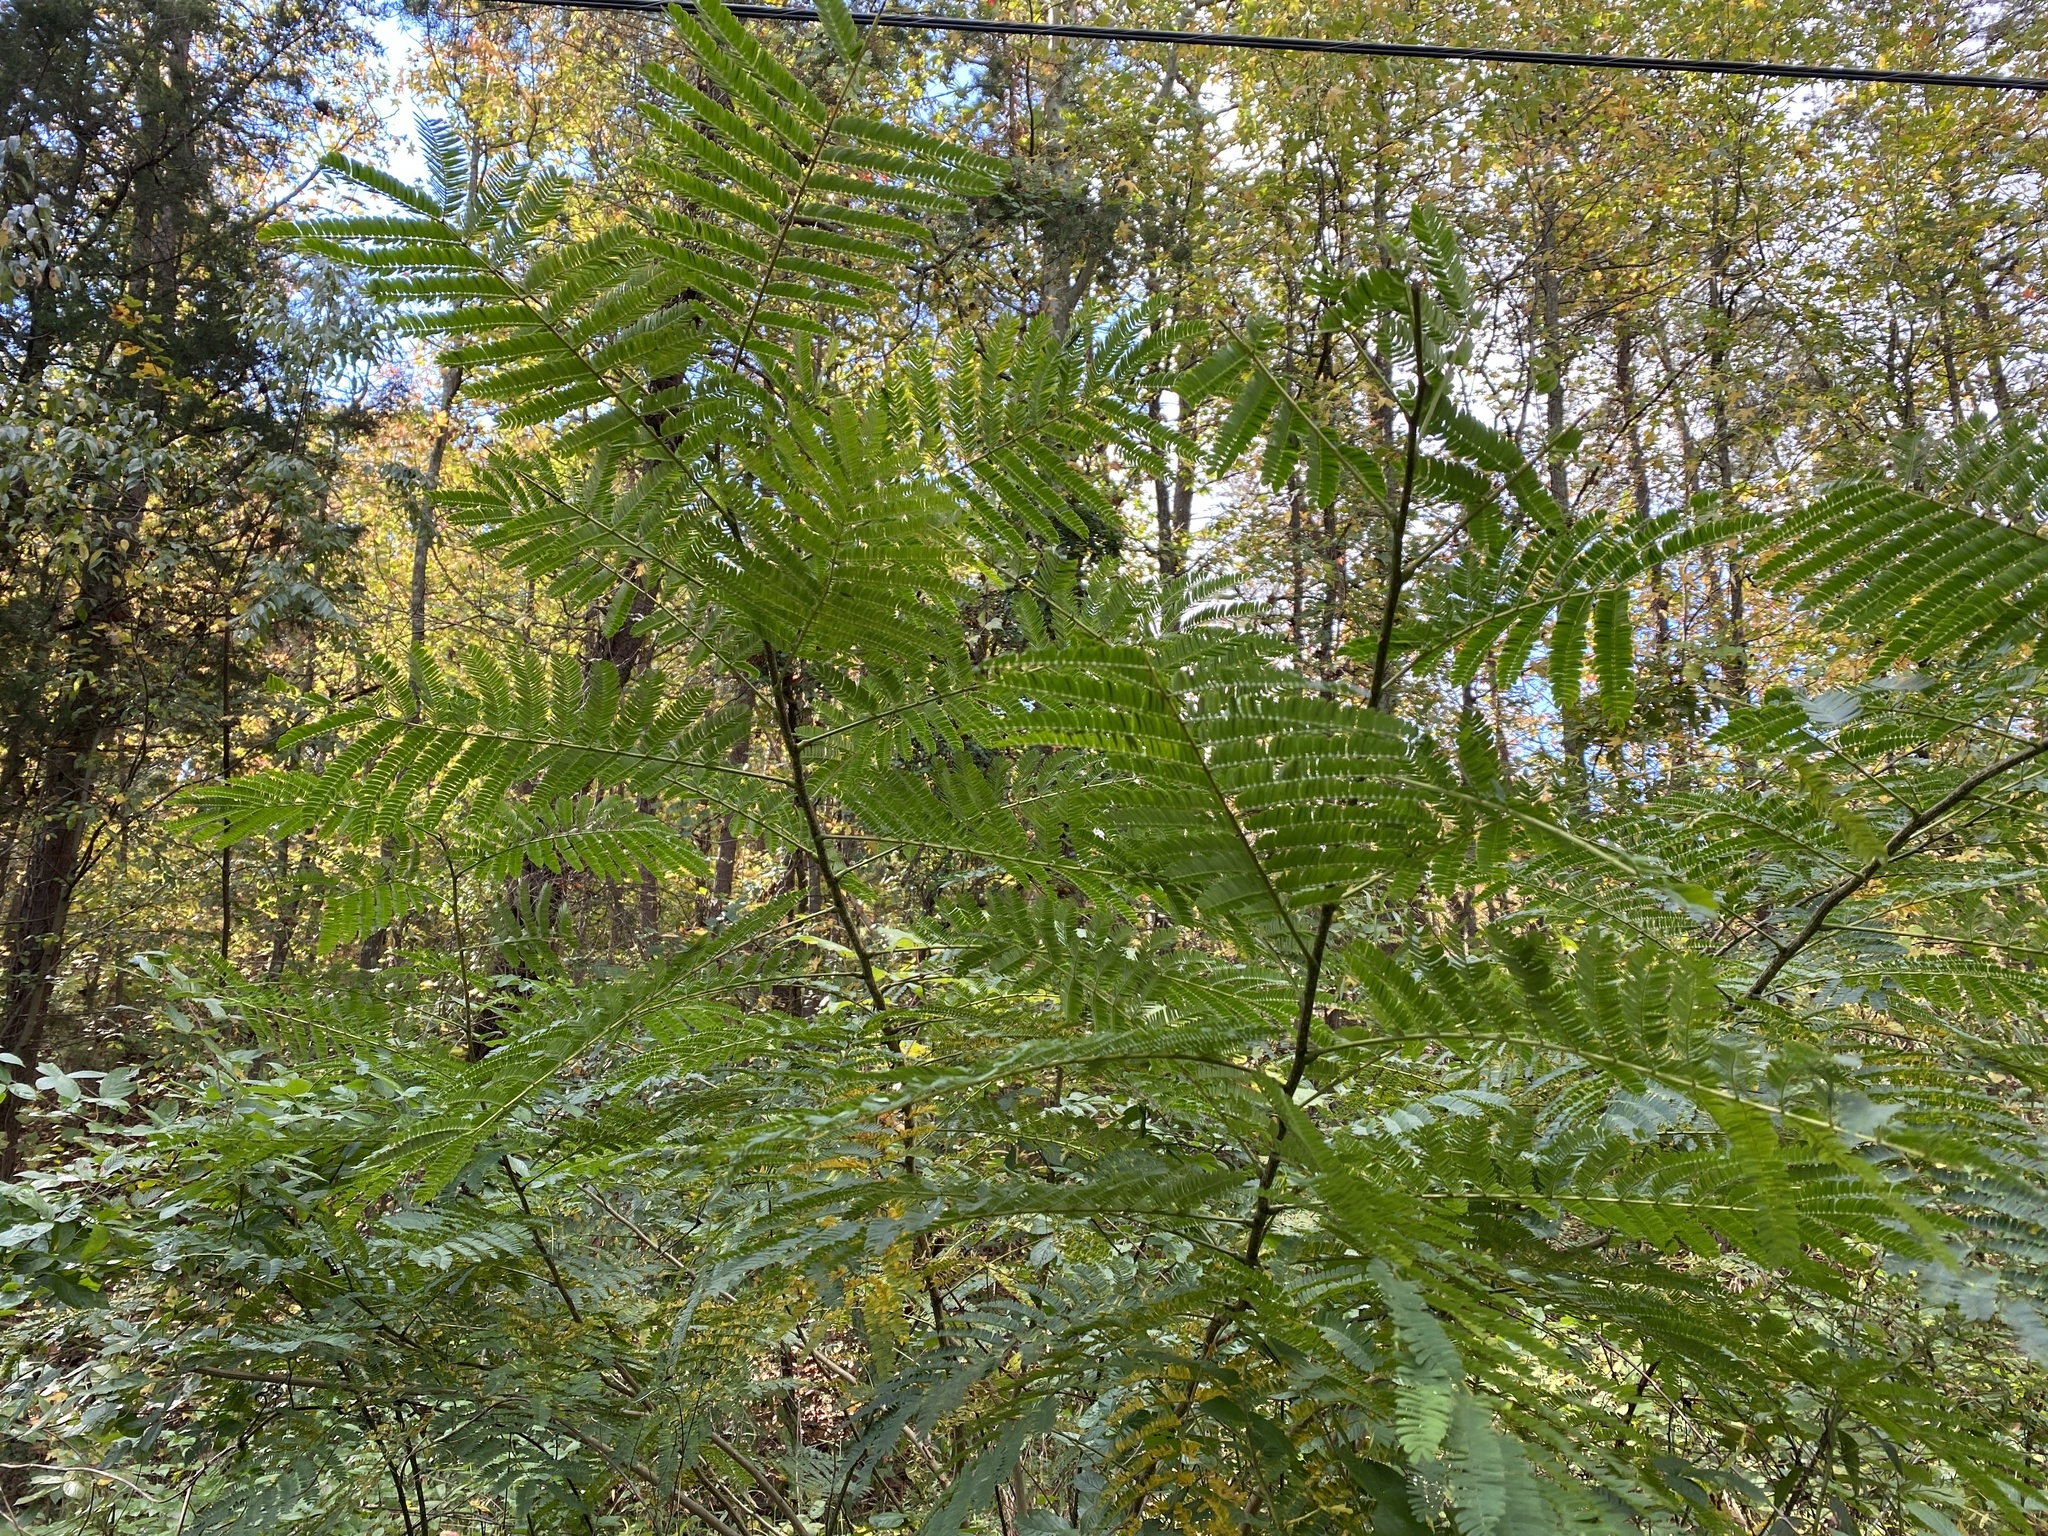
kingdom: Plantae
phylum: Tracheophyta
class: Magnoliopsida
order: Fabales
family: Fabaceae
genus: Albizia
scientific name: Albizia julibrissin
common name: Silktree
